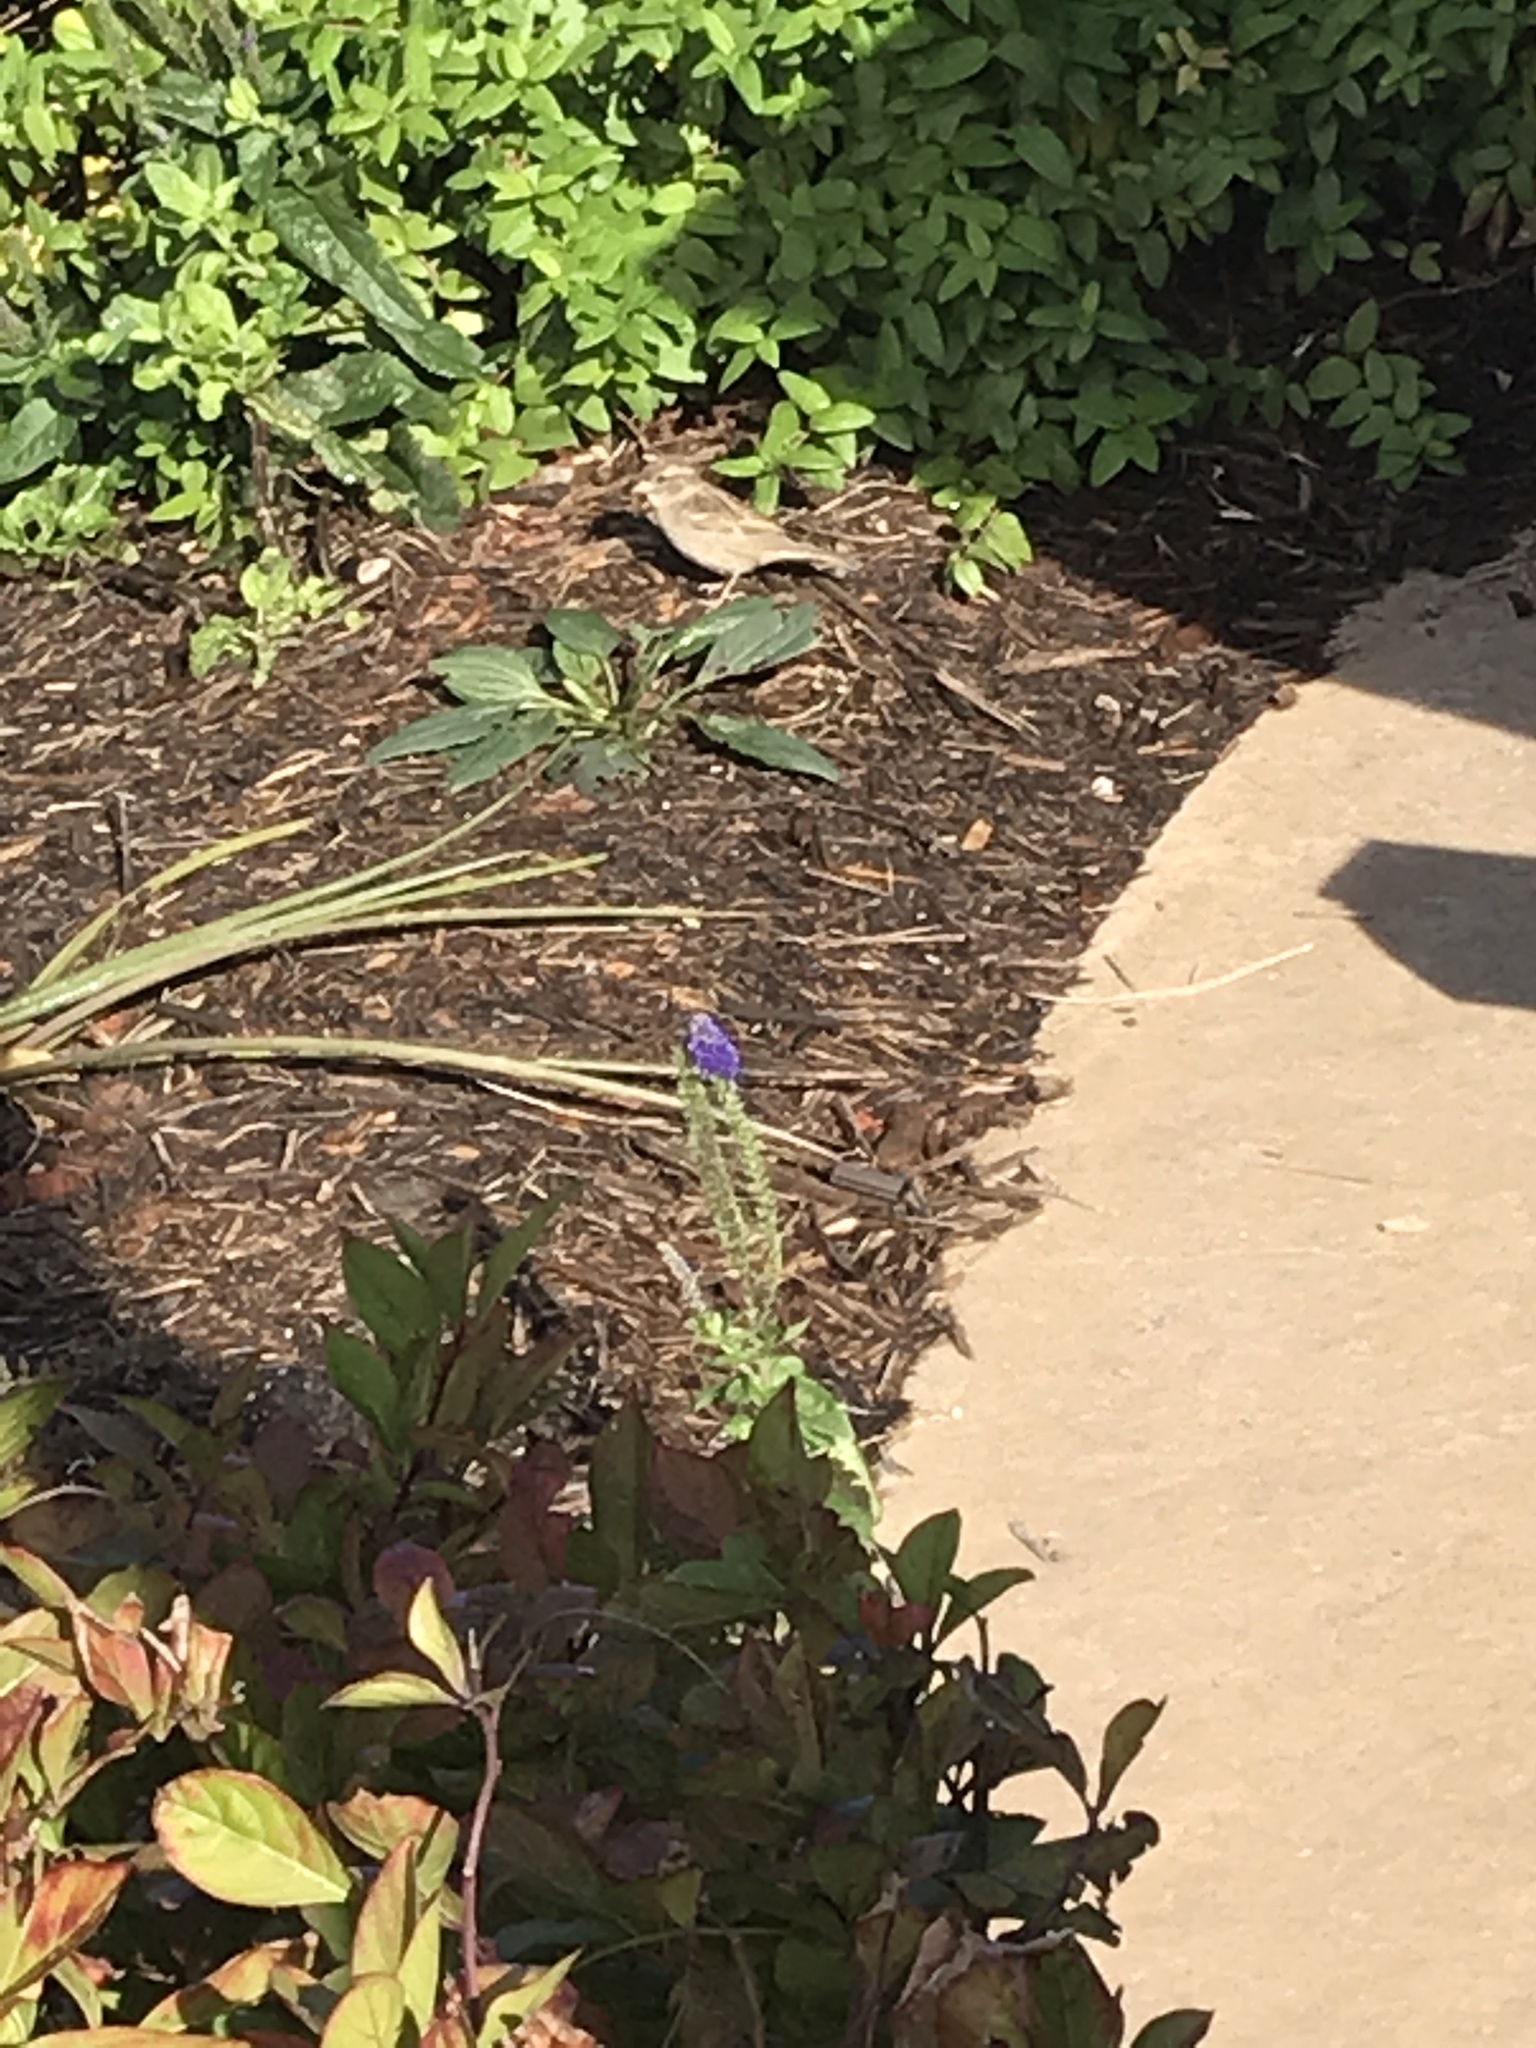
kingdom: Animalia
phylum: Chordata
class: Aves
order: Passeriformes
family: Passeridae
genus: Passer
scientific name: Passer domesticus
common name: House sparrow
